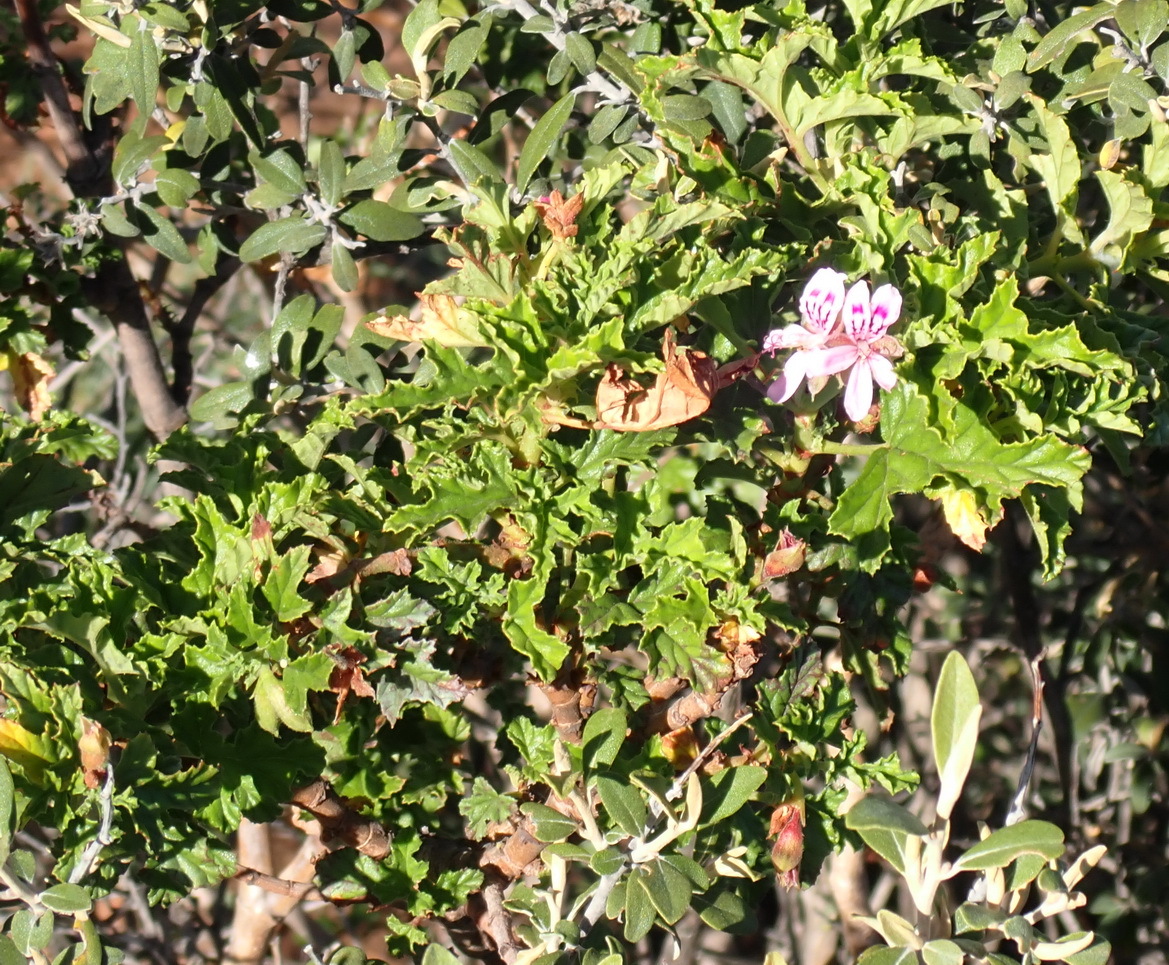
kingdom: Plantae
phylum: Tracheophyta
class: Magnoliopsida
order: Geraniales
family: Geraniaceae
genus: Pelargonium
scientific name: Pelargonium glutinosum
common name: Pheasant-foot geranium
